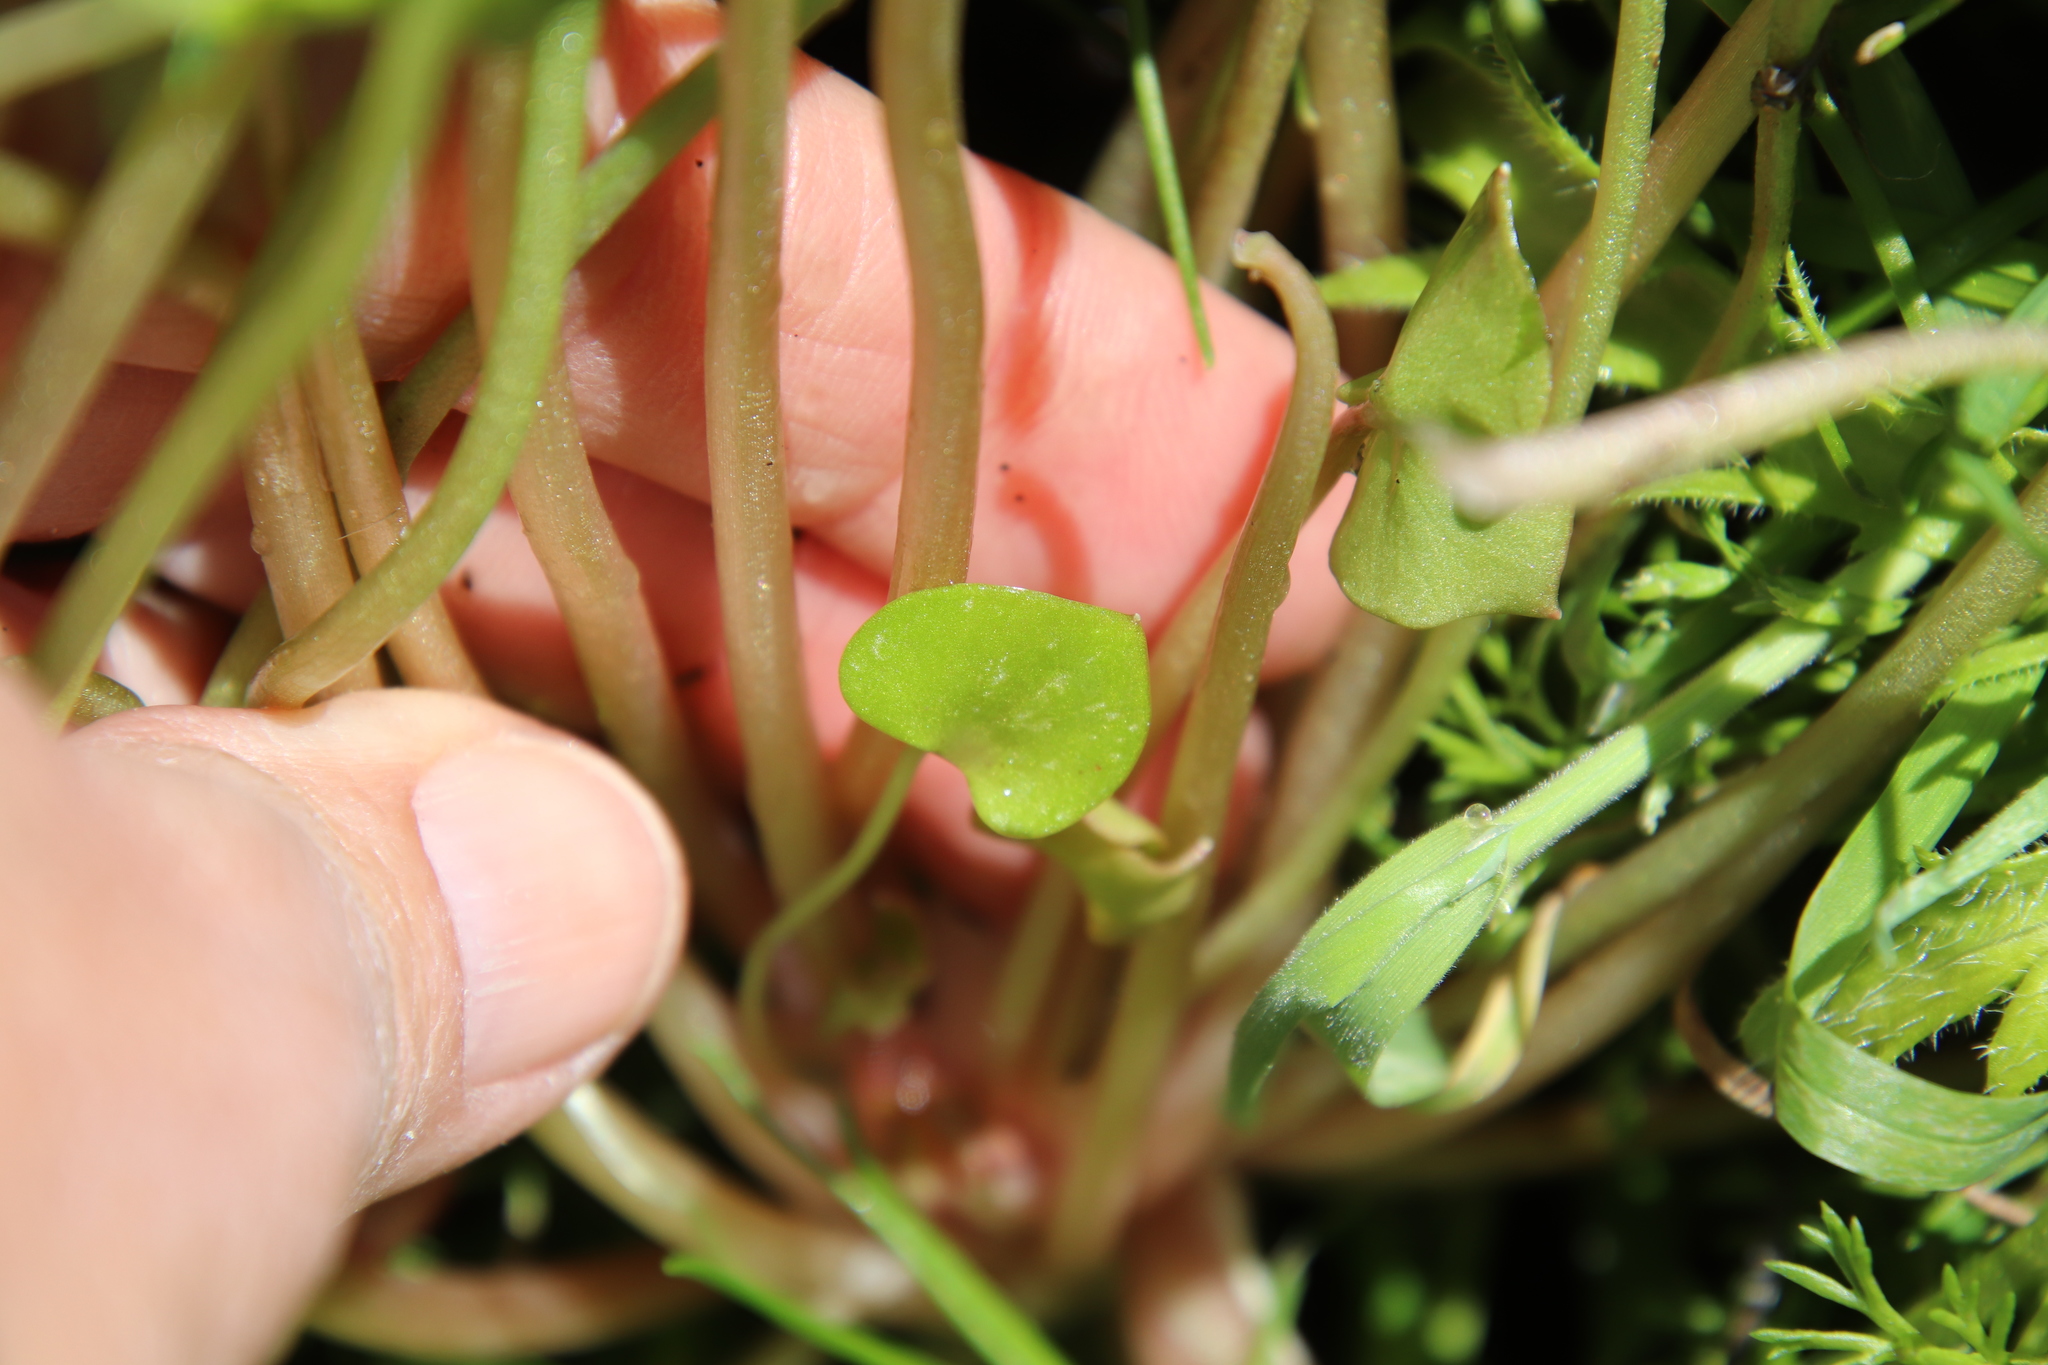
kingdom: Plantae
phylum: Tracheophyta
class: Magnoliopsida
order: Caryophyllales
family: Montiaceae
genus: Claytonia
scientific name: Claytonia perfoliata
